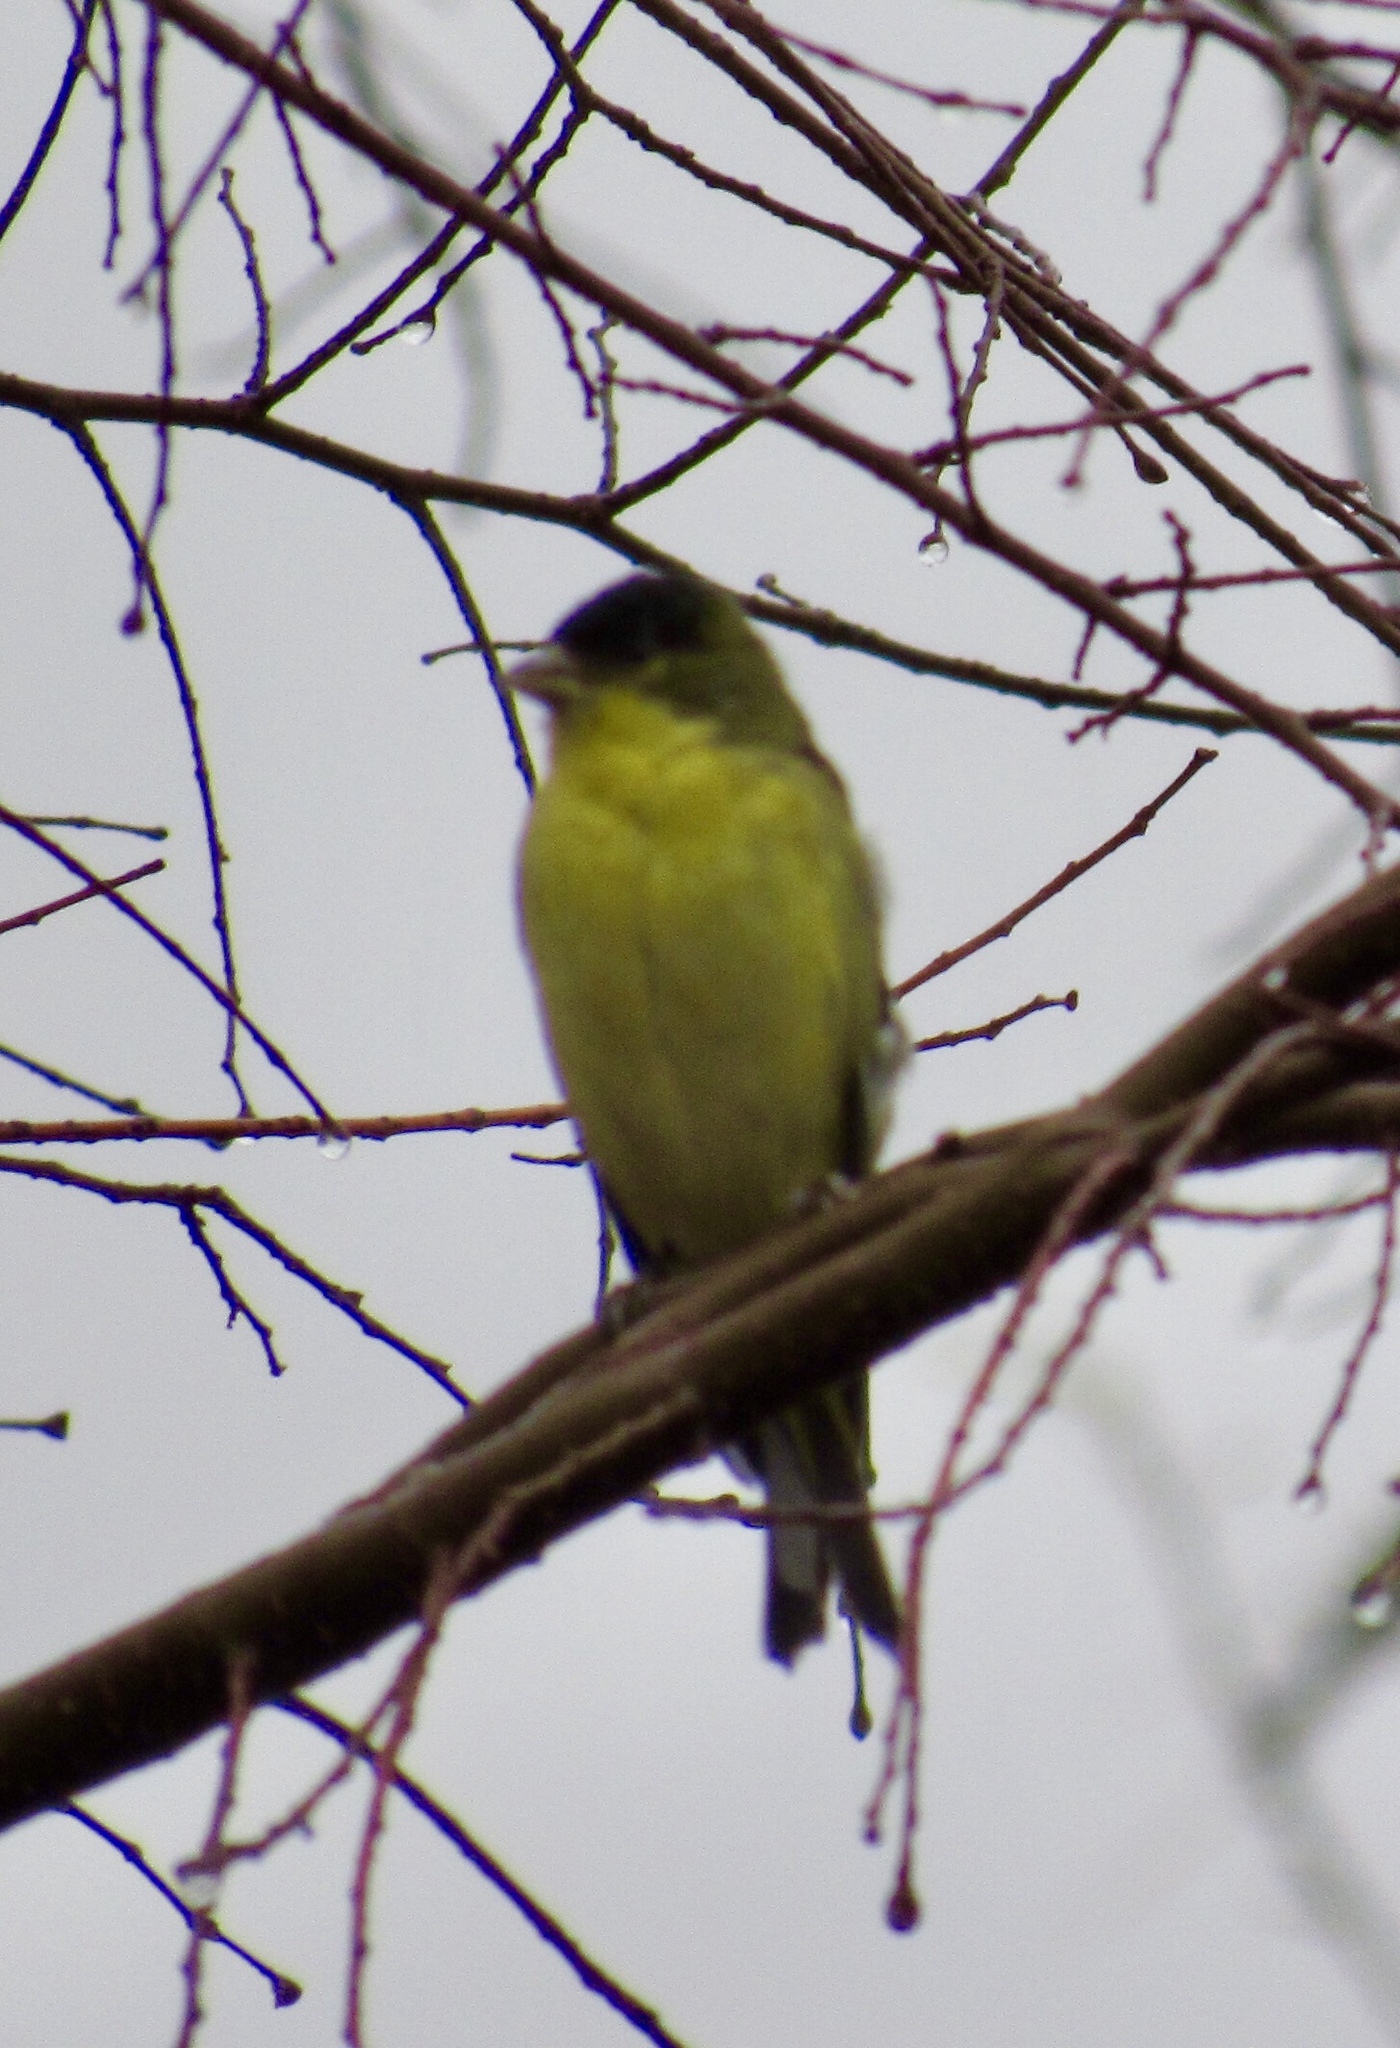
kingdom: Animalia
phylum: Chordata
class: Aves
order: Passeriformes
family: Fringillidae
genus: Spinus
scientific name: Spinus psaltria
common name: Lesser goldfinch
